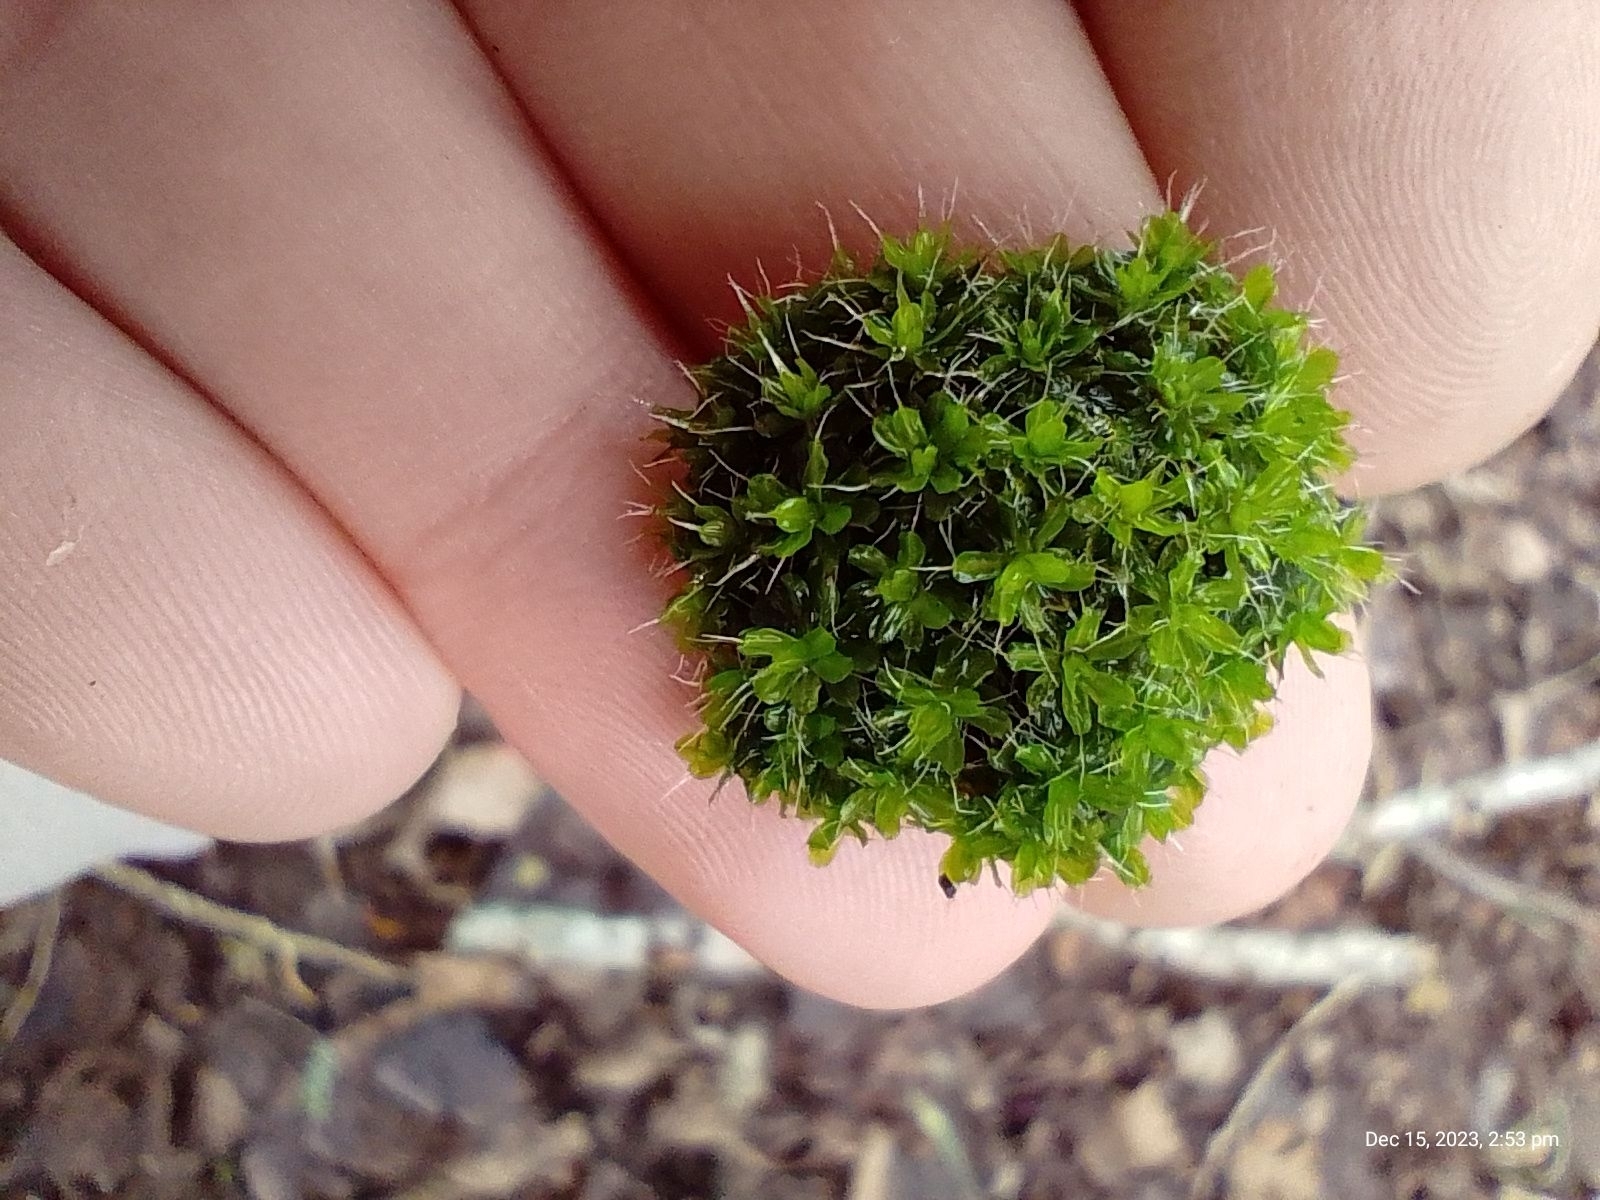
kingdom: Plantae
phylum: Bryophyta
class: Bryopsida
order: Pottiales
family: Pottiaceae
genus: Syntrichia
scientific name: Syntrichia montana
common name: Intermediate screw-moss
